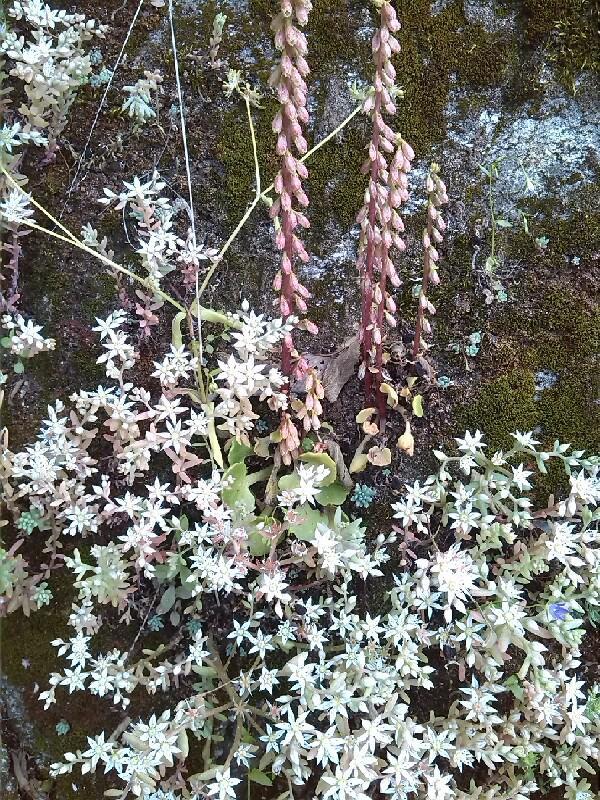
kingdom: Plantae
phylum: Tracheophyta
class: Magnoliopsida
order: Saxifragales
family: Crassulaceae
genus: Sedum
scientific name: Sedum hispanicum
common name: Spanish stonecrop
